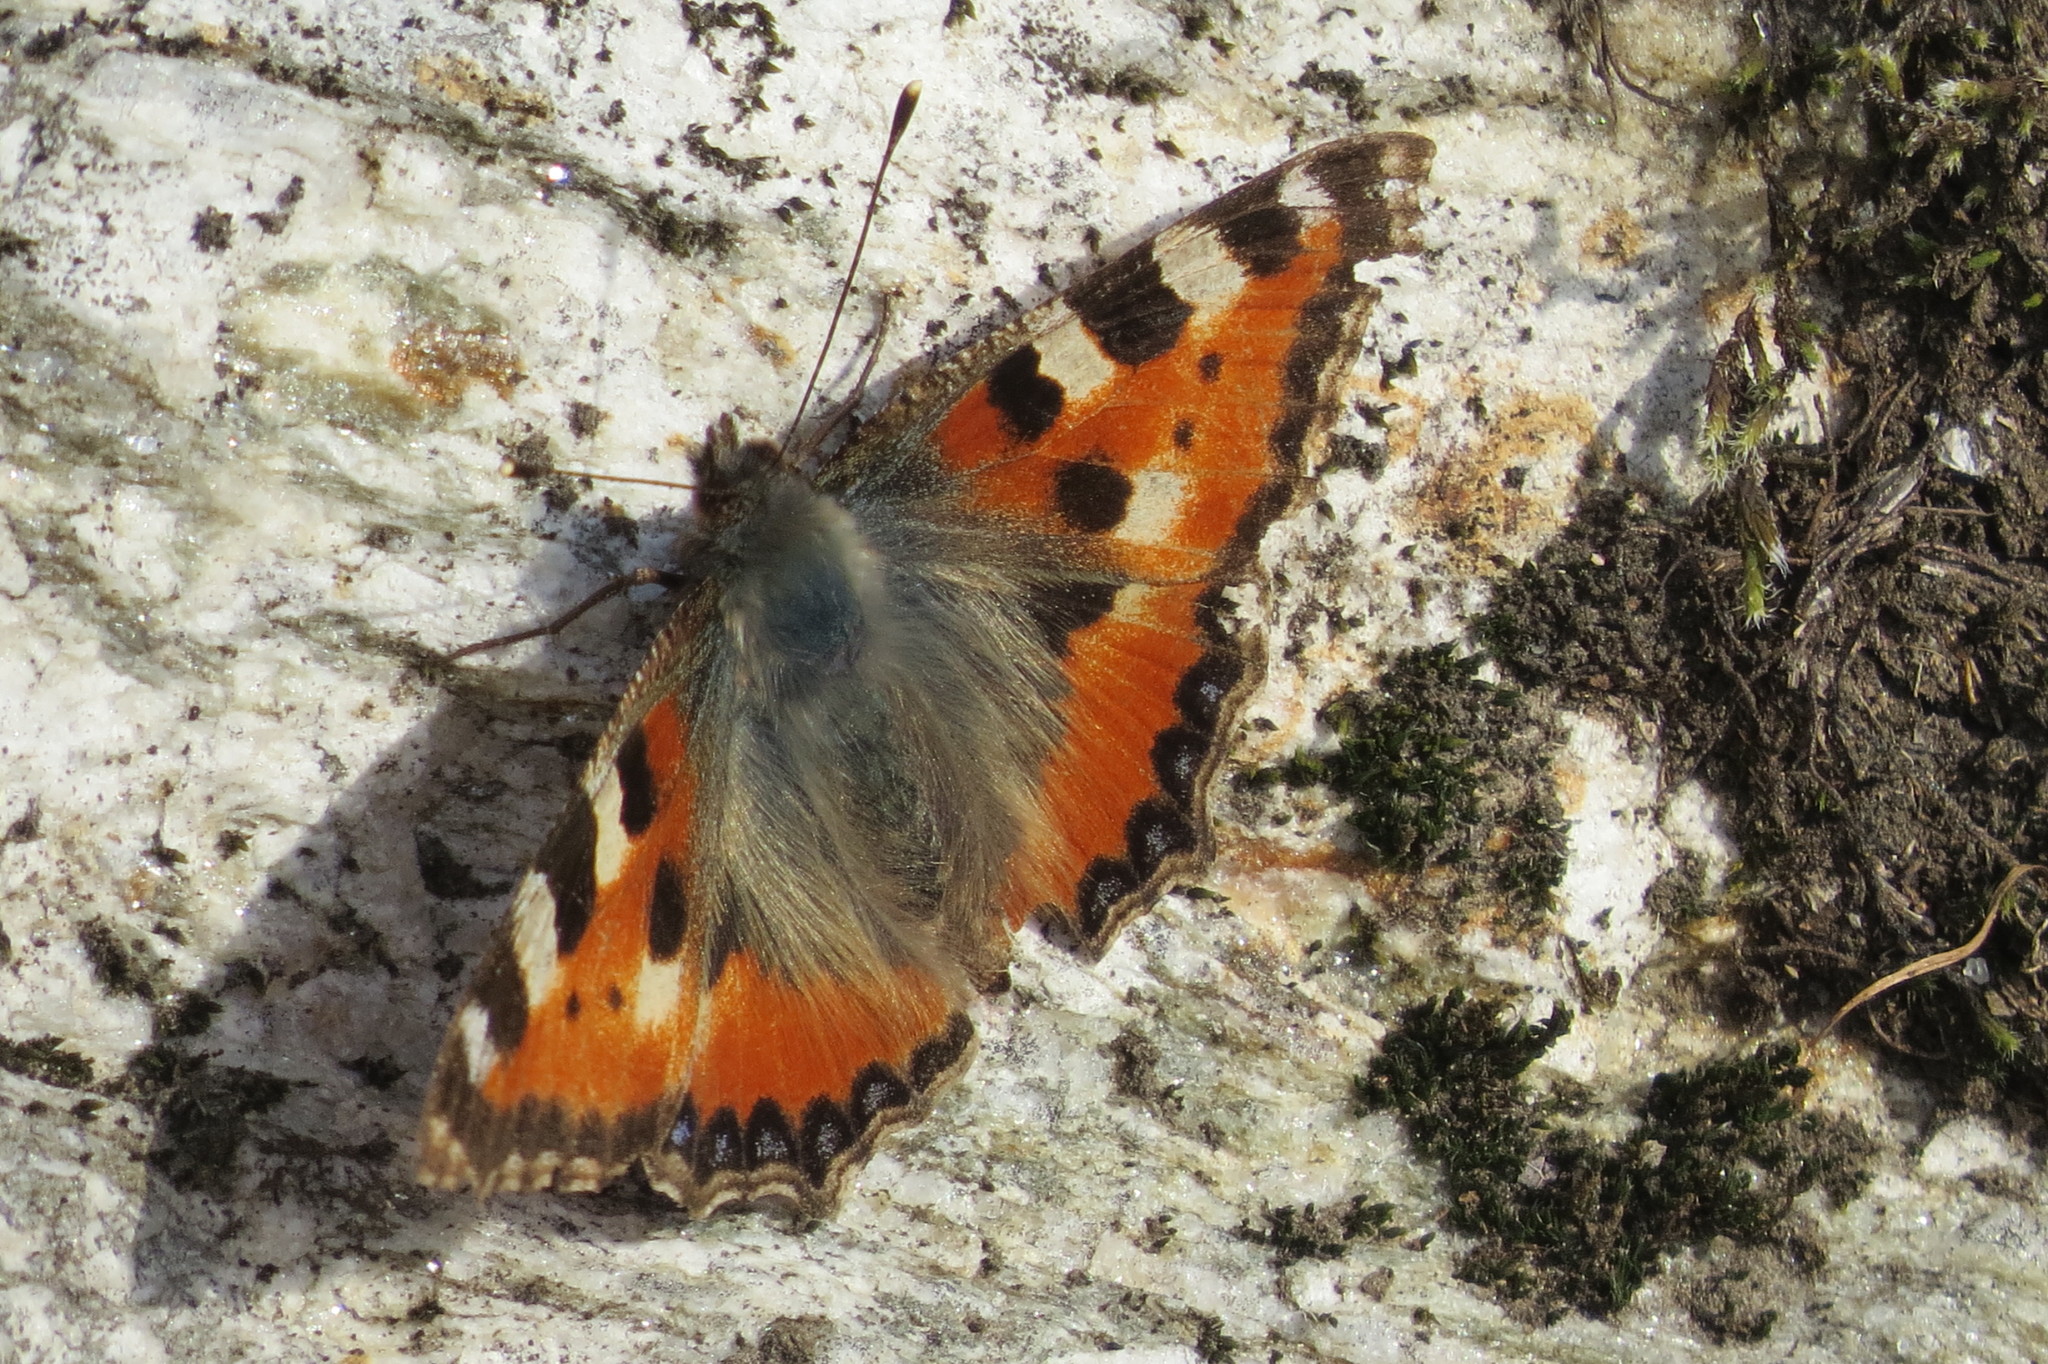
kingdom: Animalia
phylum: Arthropoda
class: Insecta
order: Lepidoptera
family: Nymphalidae
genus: Aglais
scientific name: Aglais urticae
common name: Small tortoiseshell
